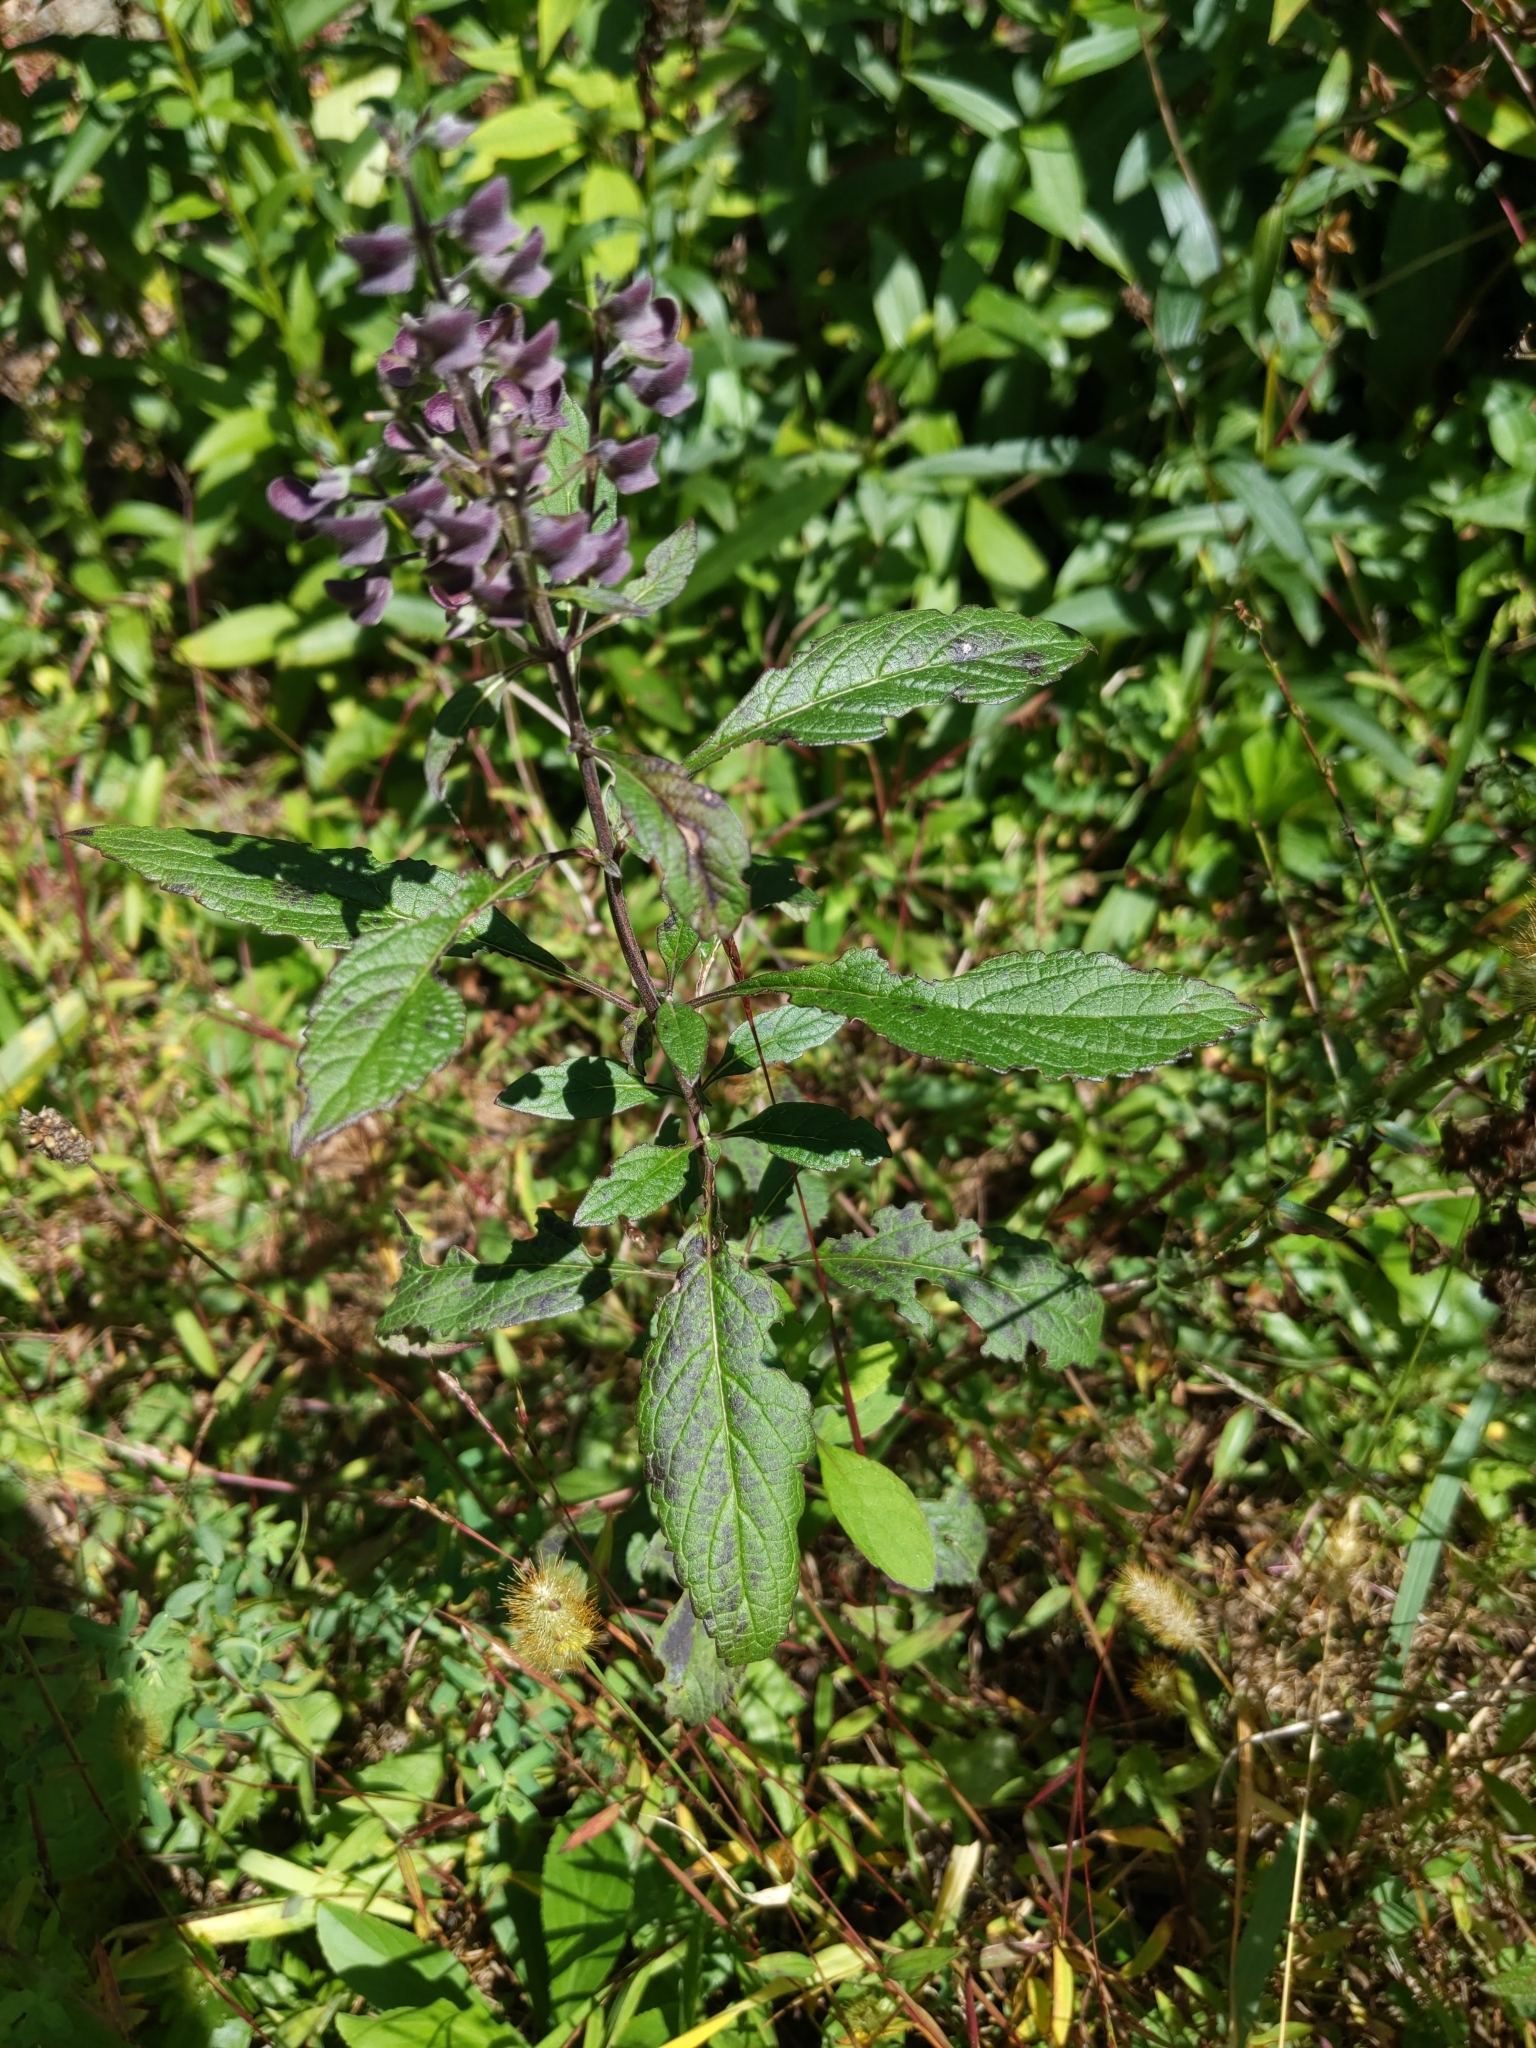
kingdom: Plantae
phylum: Tracheophyta
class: Magnoliopsida
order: Lamiales
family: Lamiaceae
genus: Scutellaria
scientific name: Scutellaria incana
